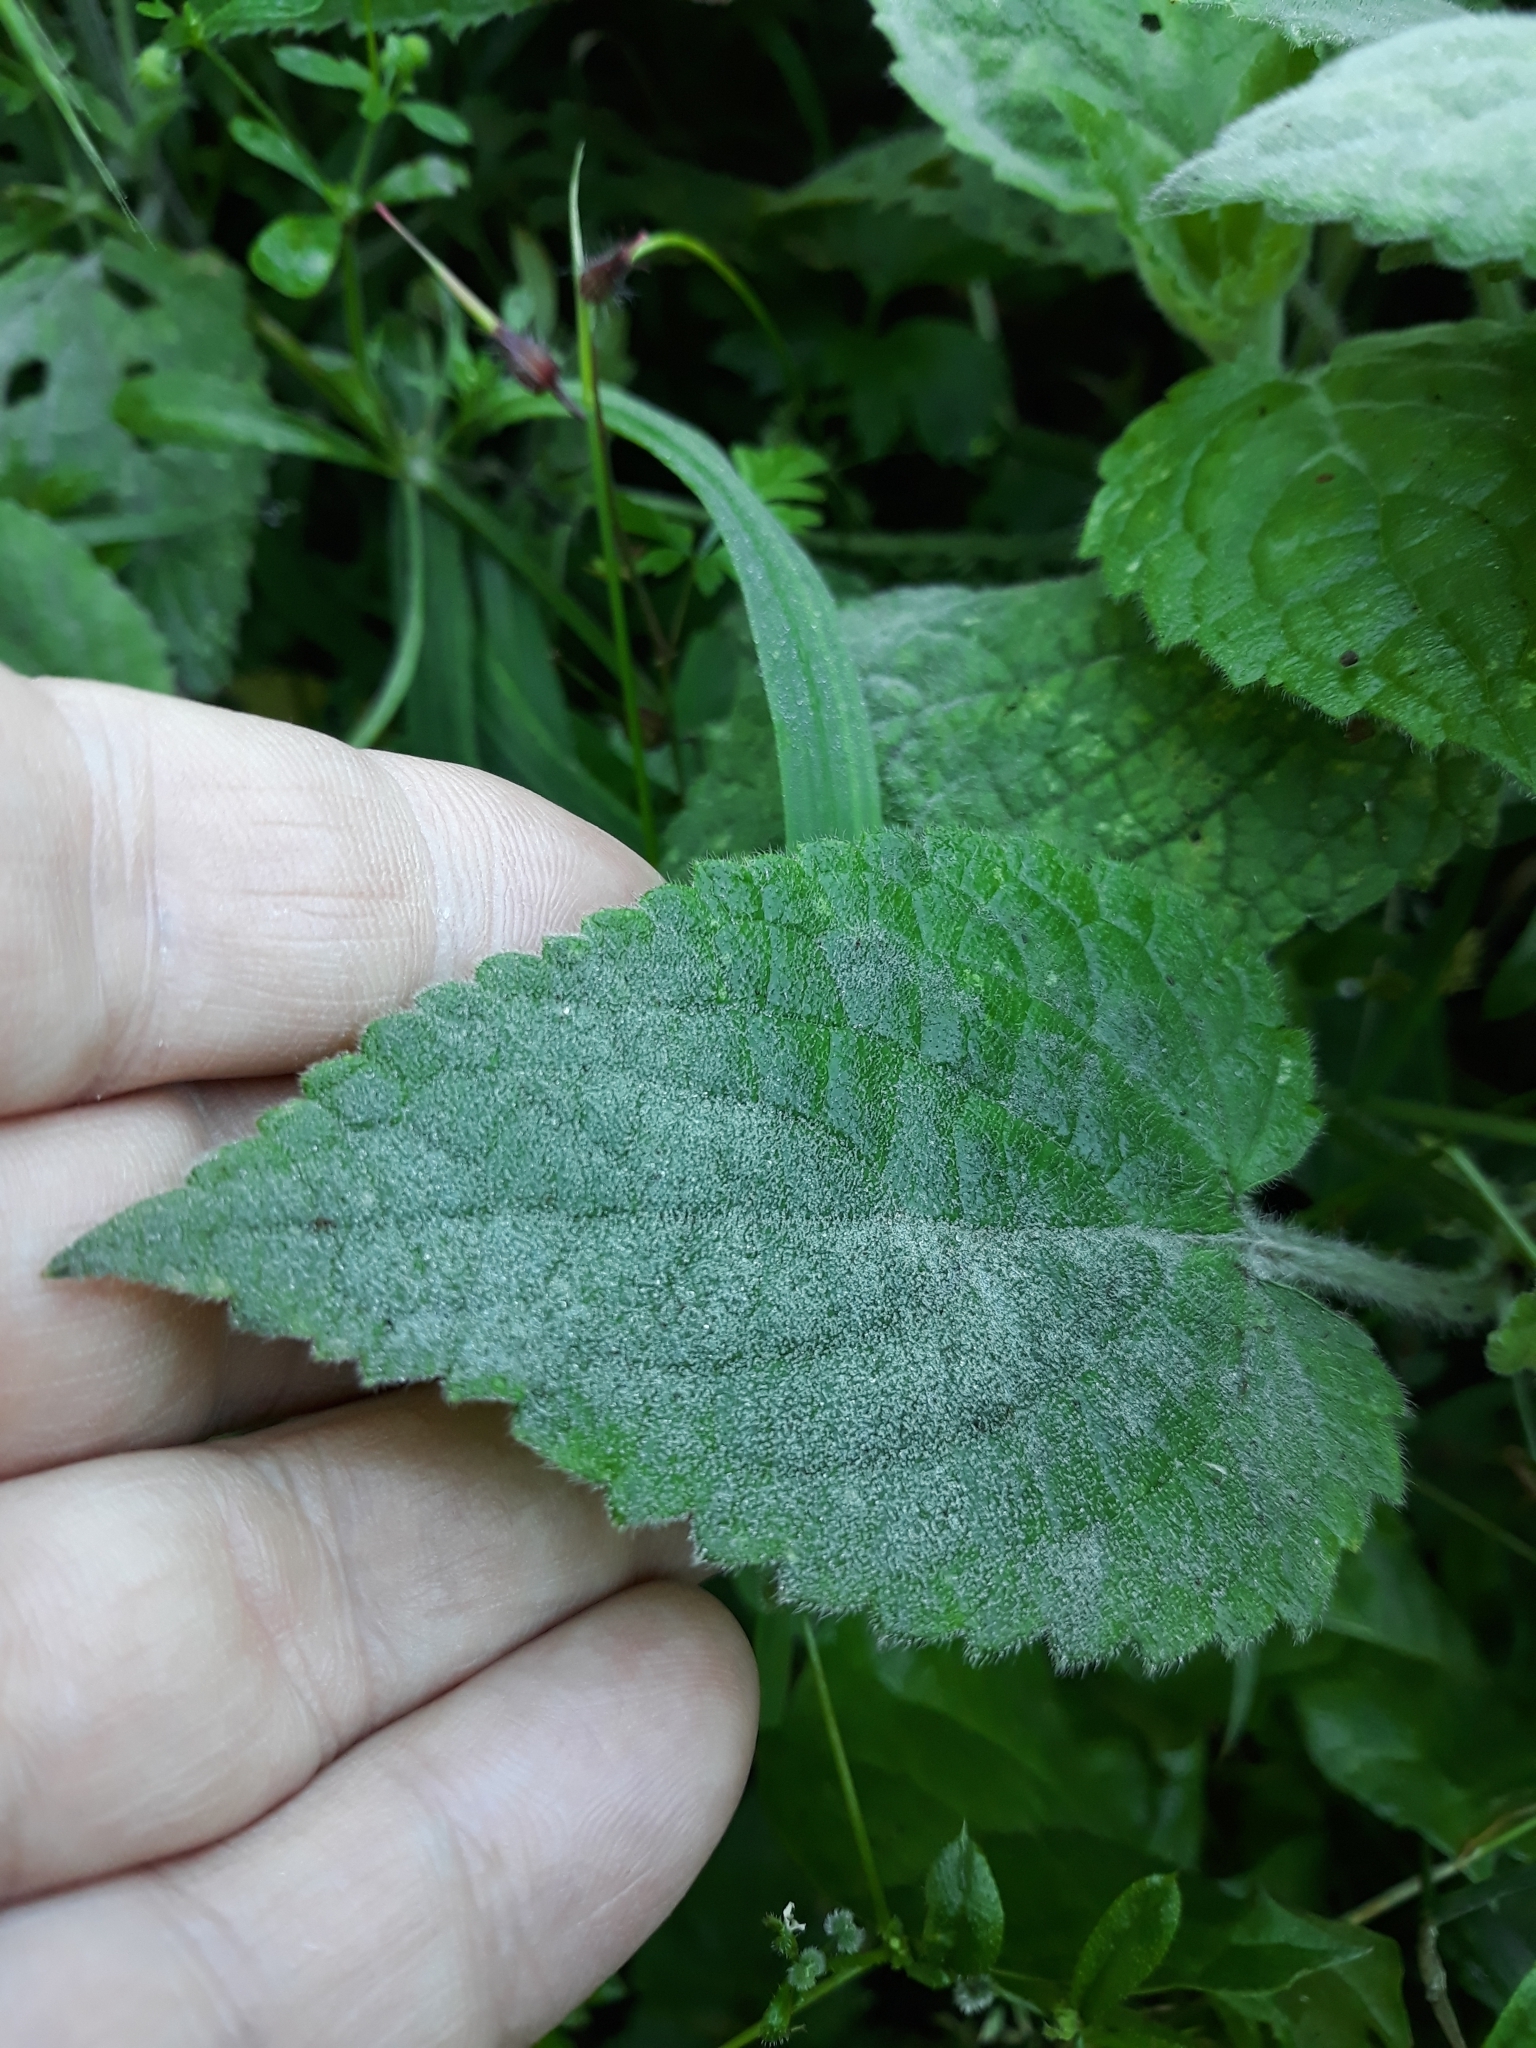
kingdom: Plantae
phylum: Tracheophyta
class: Magnoliopsida
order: Lamiales
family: Lamiaceae
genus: Stachys
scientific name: Stachys sylvatica
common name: Hedge woundwort
